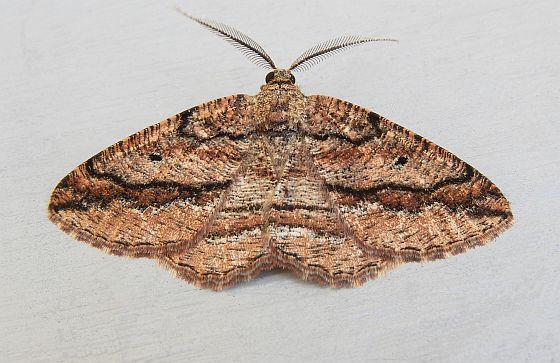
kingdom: Animalia
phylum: Arthropoda
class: Insecta
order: Lepidoptera
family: Geometridae
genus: Pterospoda
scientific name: Pterospoda nigrescens
